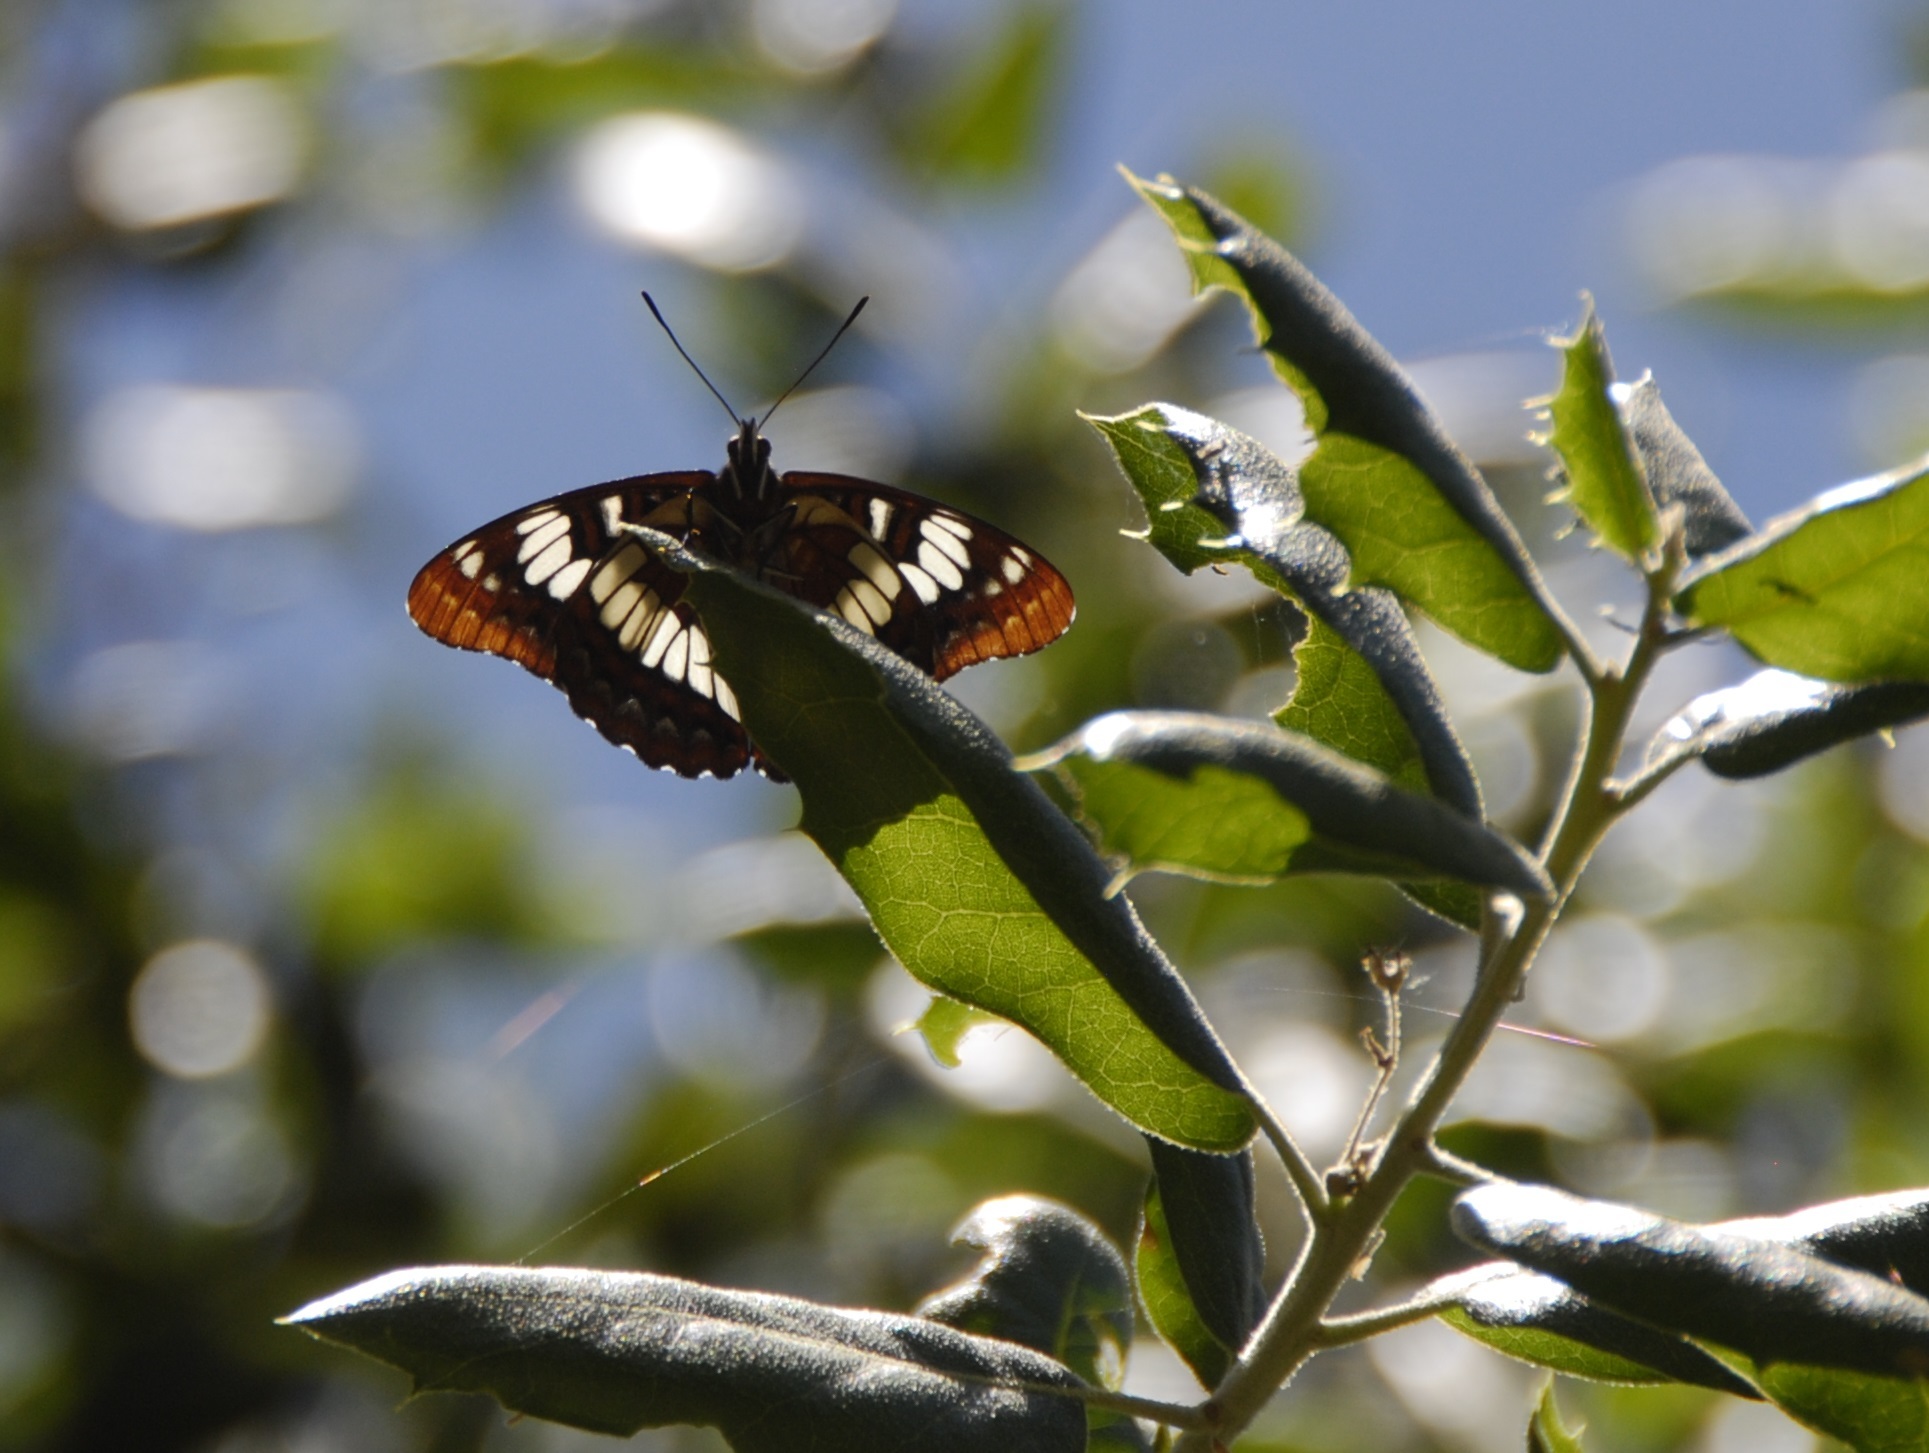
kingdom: Animalia
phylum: Arthropoda
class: Insecta
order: Lepidoptera
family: Nymphalidae
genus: Limenitis
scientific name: Limenitis lorquini
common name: Lorquin's admiral
